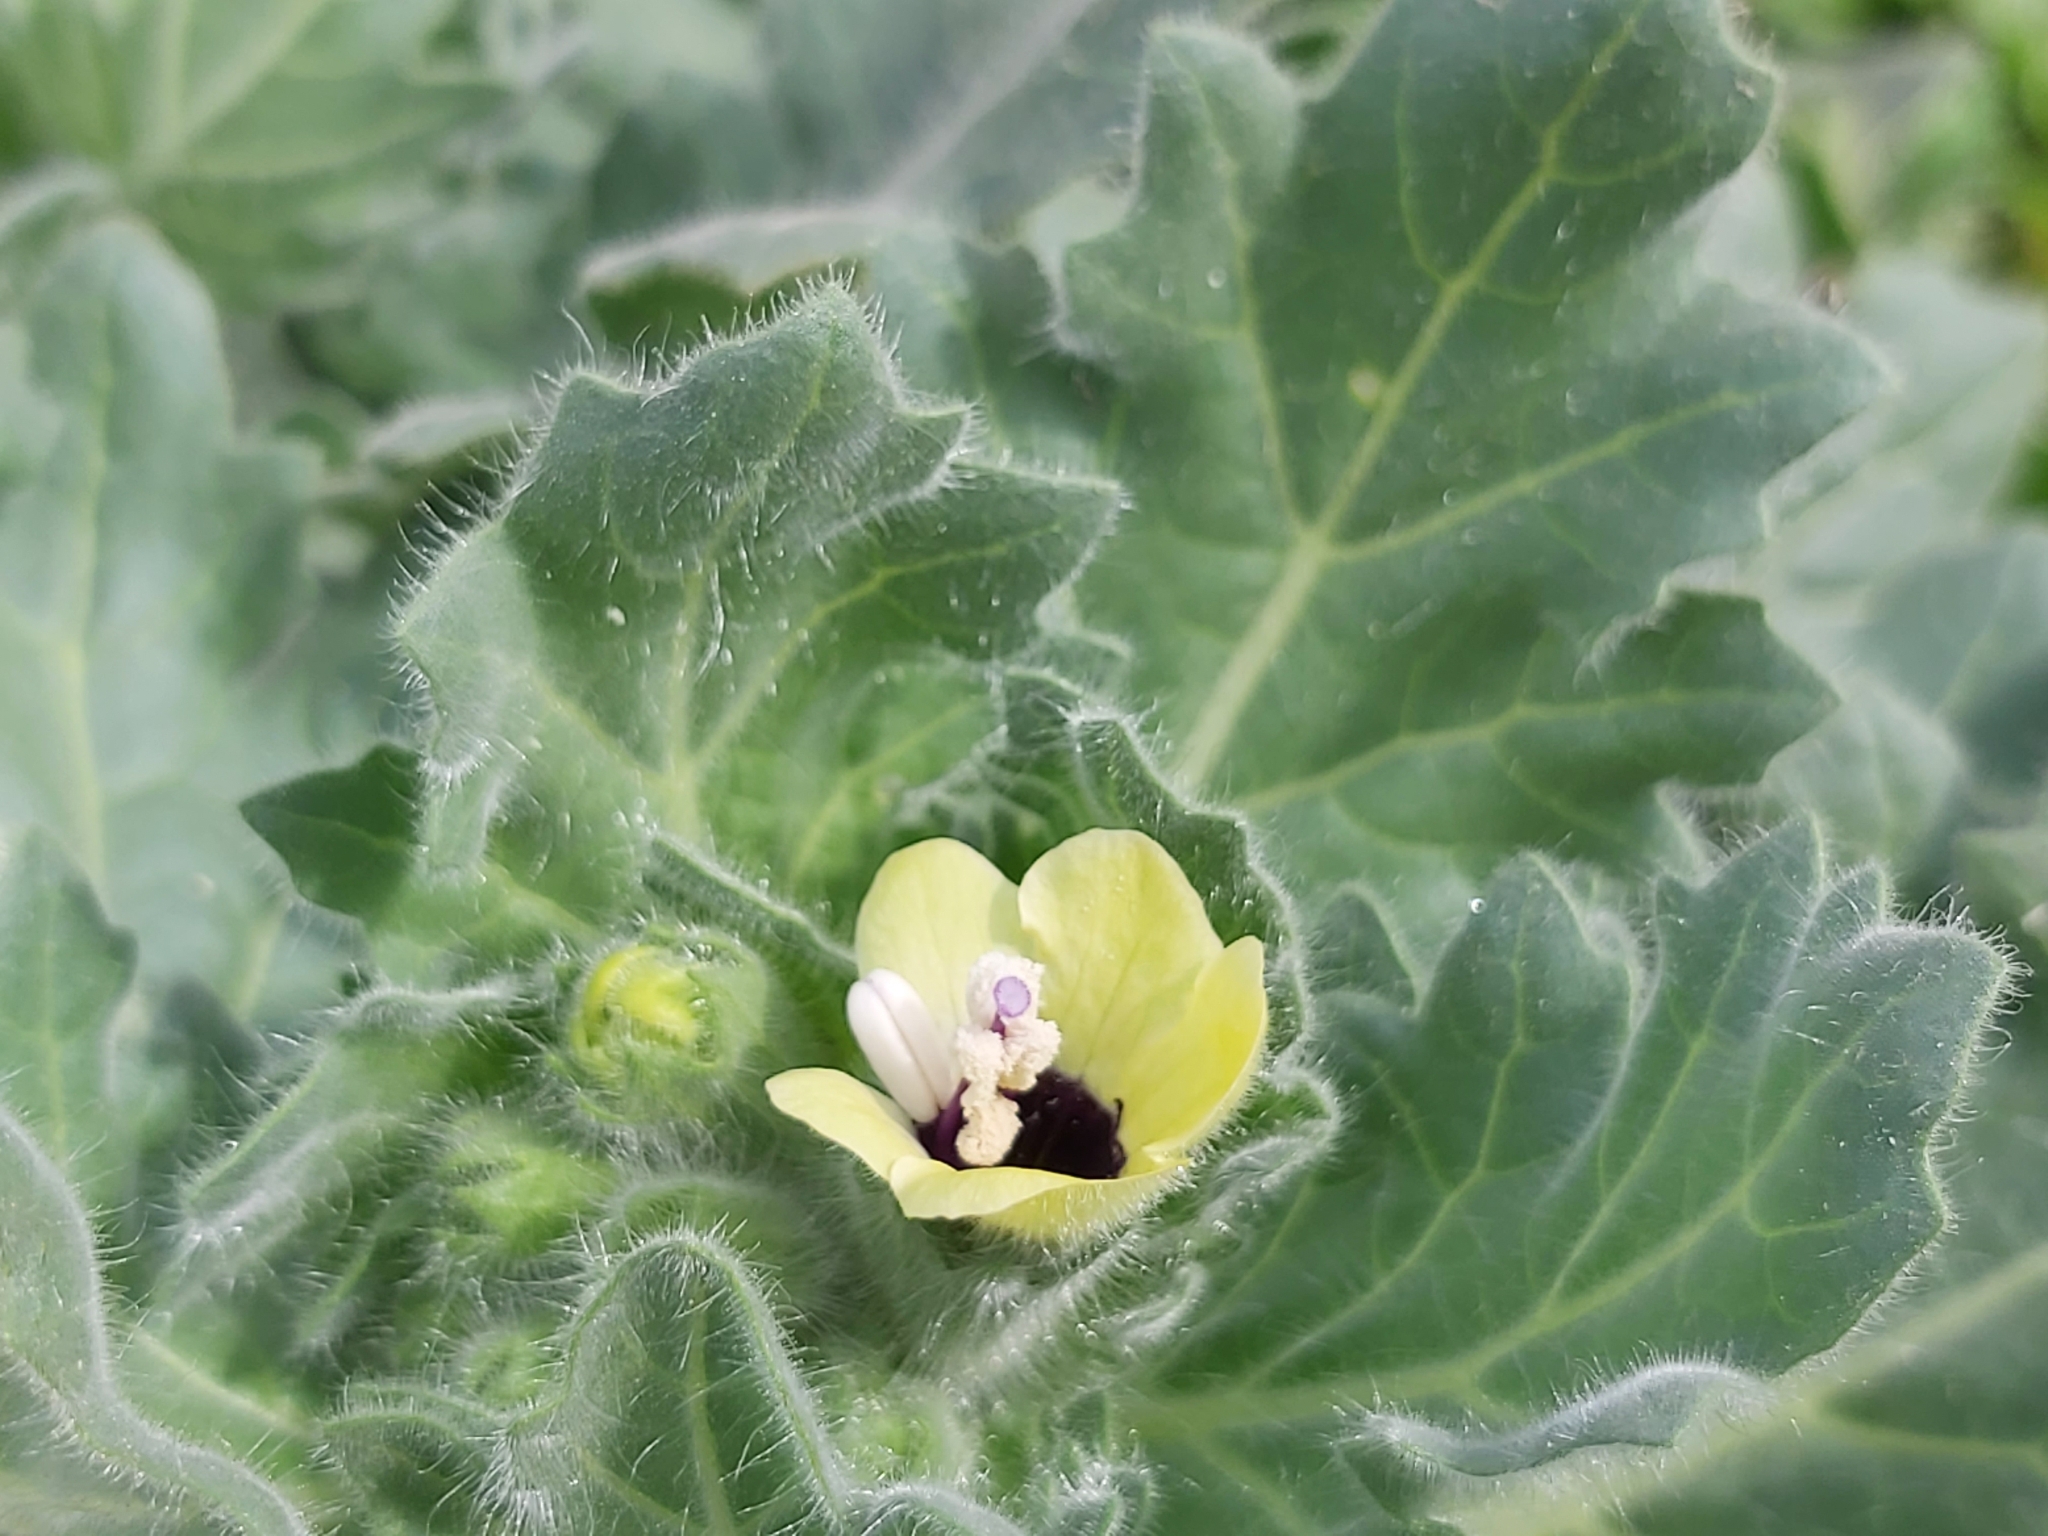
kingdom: Plantae
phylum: Tracheophyta
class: Magnoliopsida
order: Solanales
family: Solanaceae
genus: Hyoscyamus
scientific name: Hyoscyamus albus
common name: White henbane
